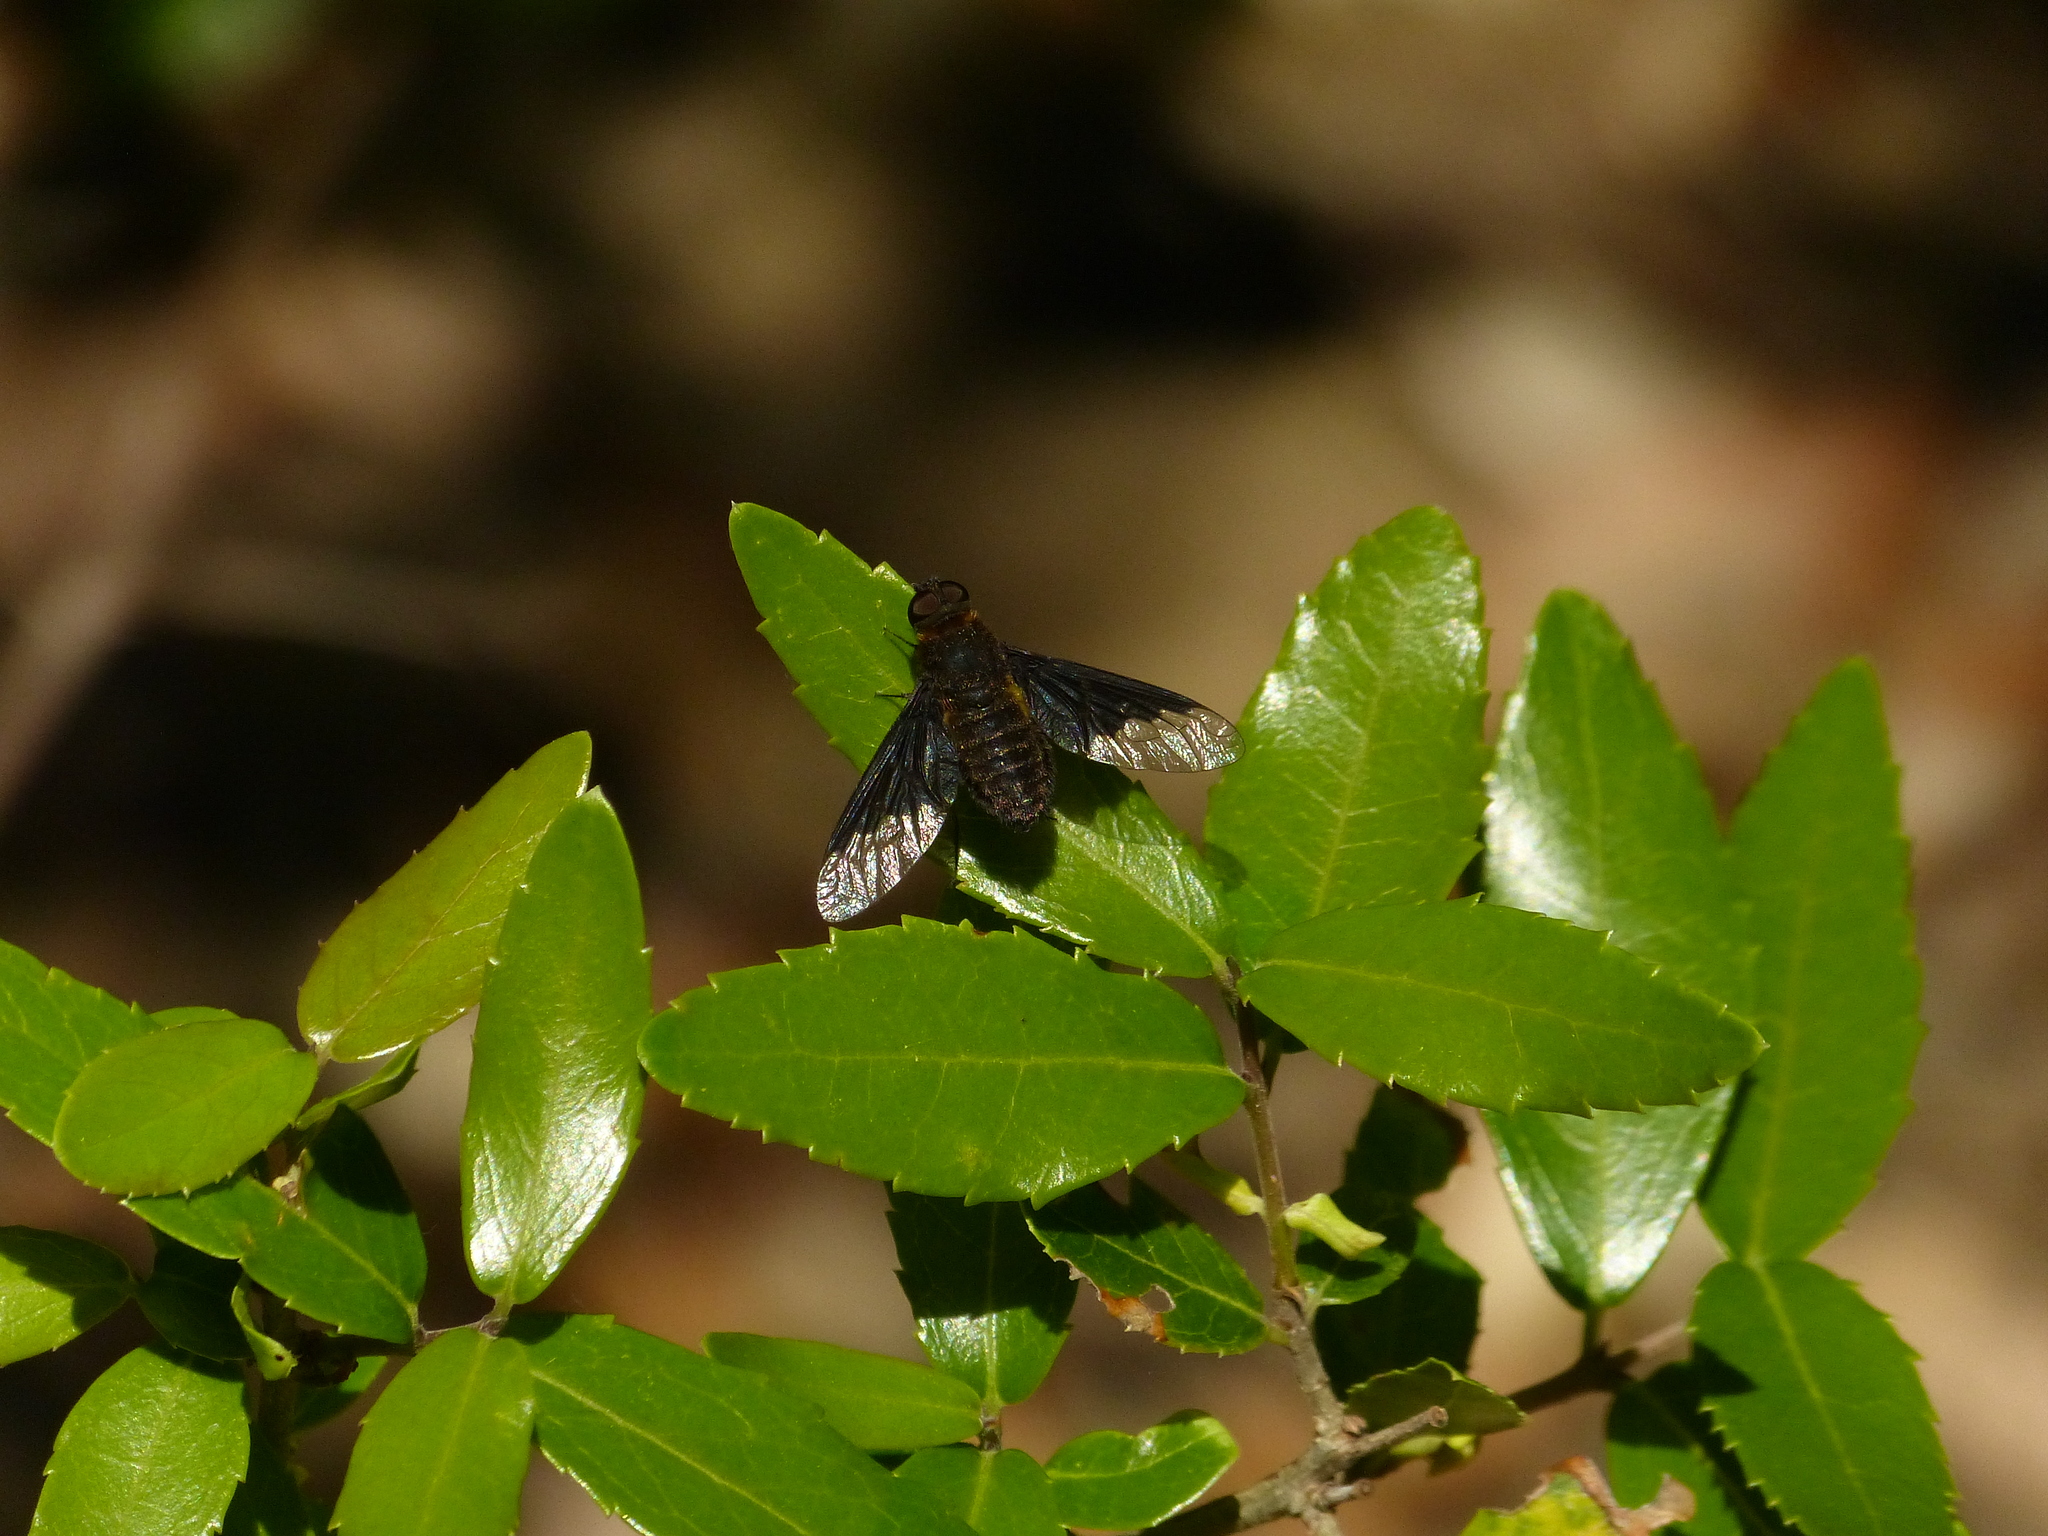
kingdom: Animalia
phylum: Arthropoda
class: Insecta
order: Diptera
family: Bombyliidae
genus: Hemipenthes
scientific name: Hemipenthes morio
